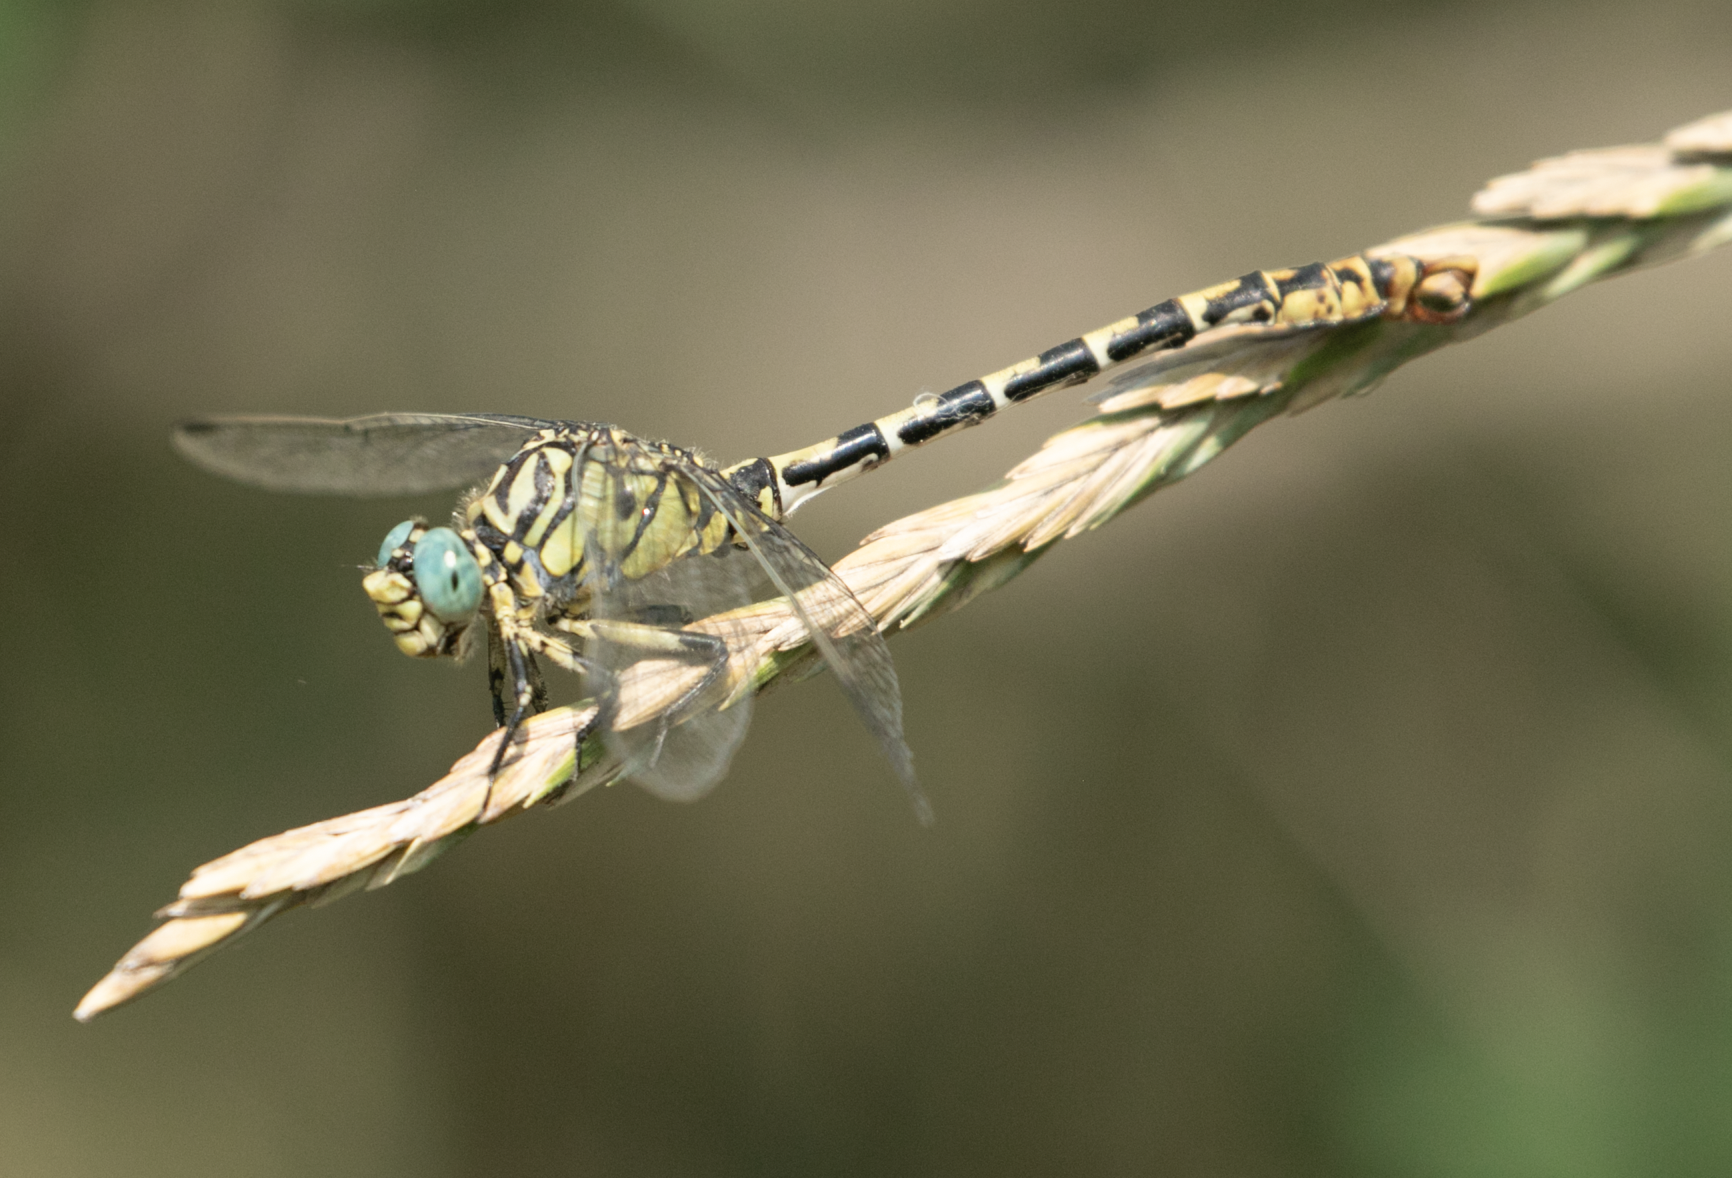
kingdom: Animalia
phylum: Arthropoda
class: Insecta
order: Odonata
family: Gomphidae
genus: Onychogomphus
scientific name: Onychogomphus forcipatus
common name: Small pincertail
